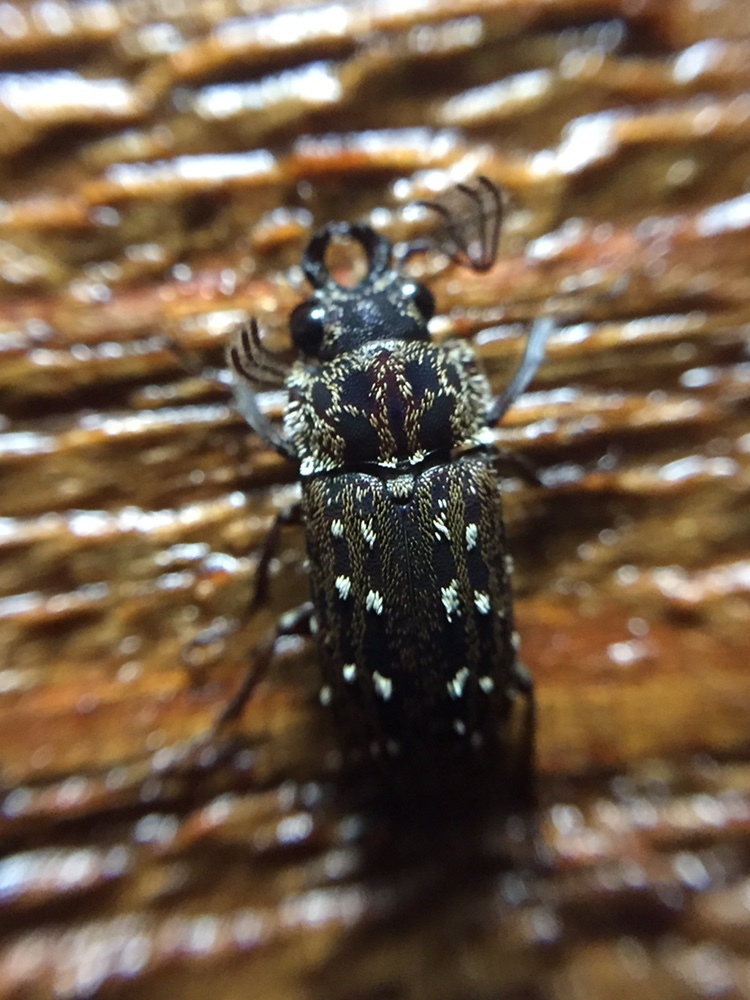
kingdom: Animalia
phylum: Arthropoda
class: Insecta
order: Coleoptera
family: Lucanidae
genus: Mitophyllus
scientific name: Mitophyllus arcuatus
